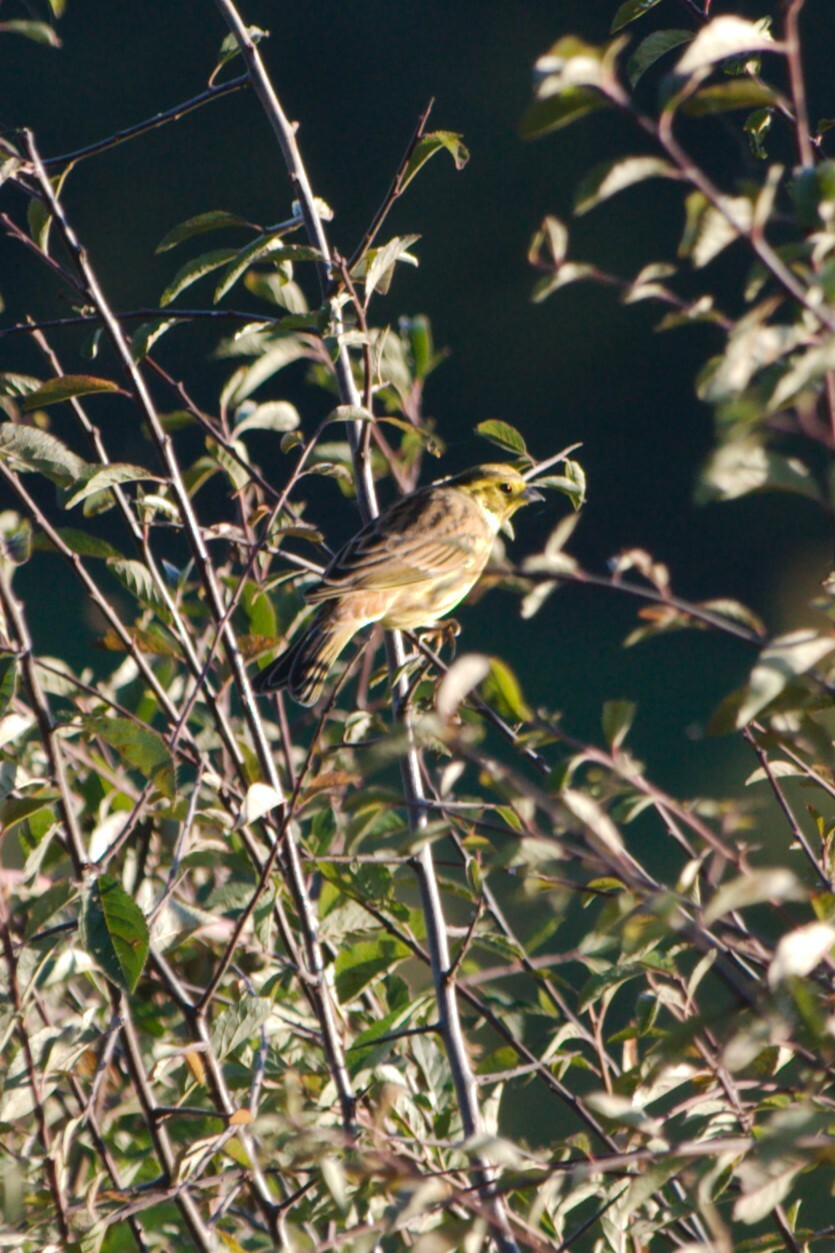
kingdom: Animalia
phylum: Chordata
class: Aves
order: Passeriformes
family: Emberizidae
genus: Emberiza
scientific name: Emberiza citrinella
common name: Yellowhammer
